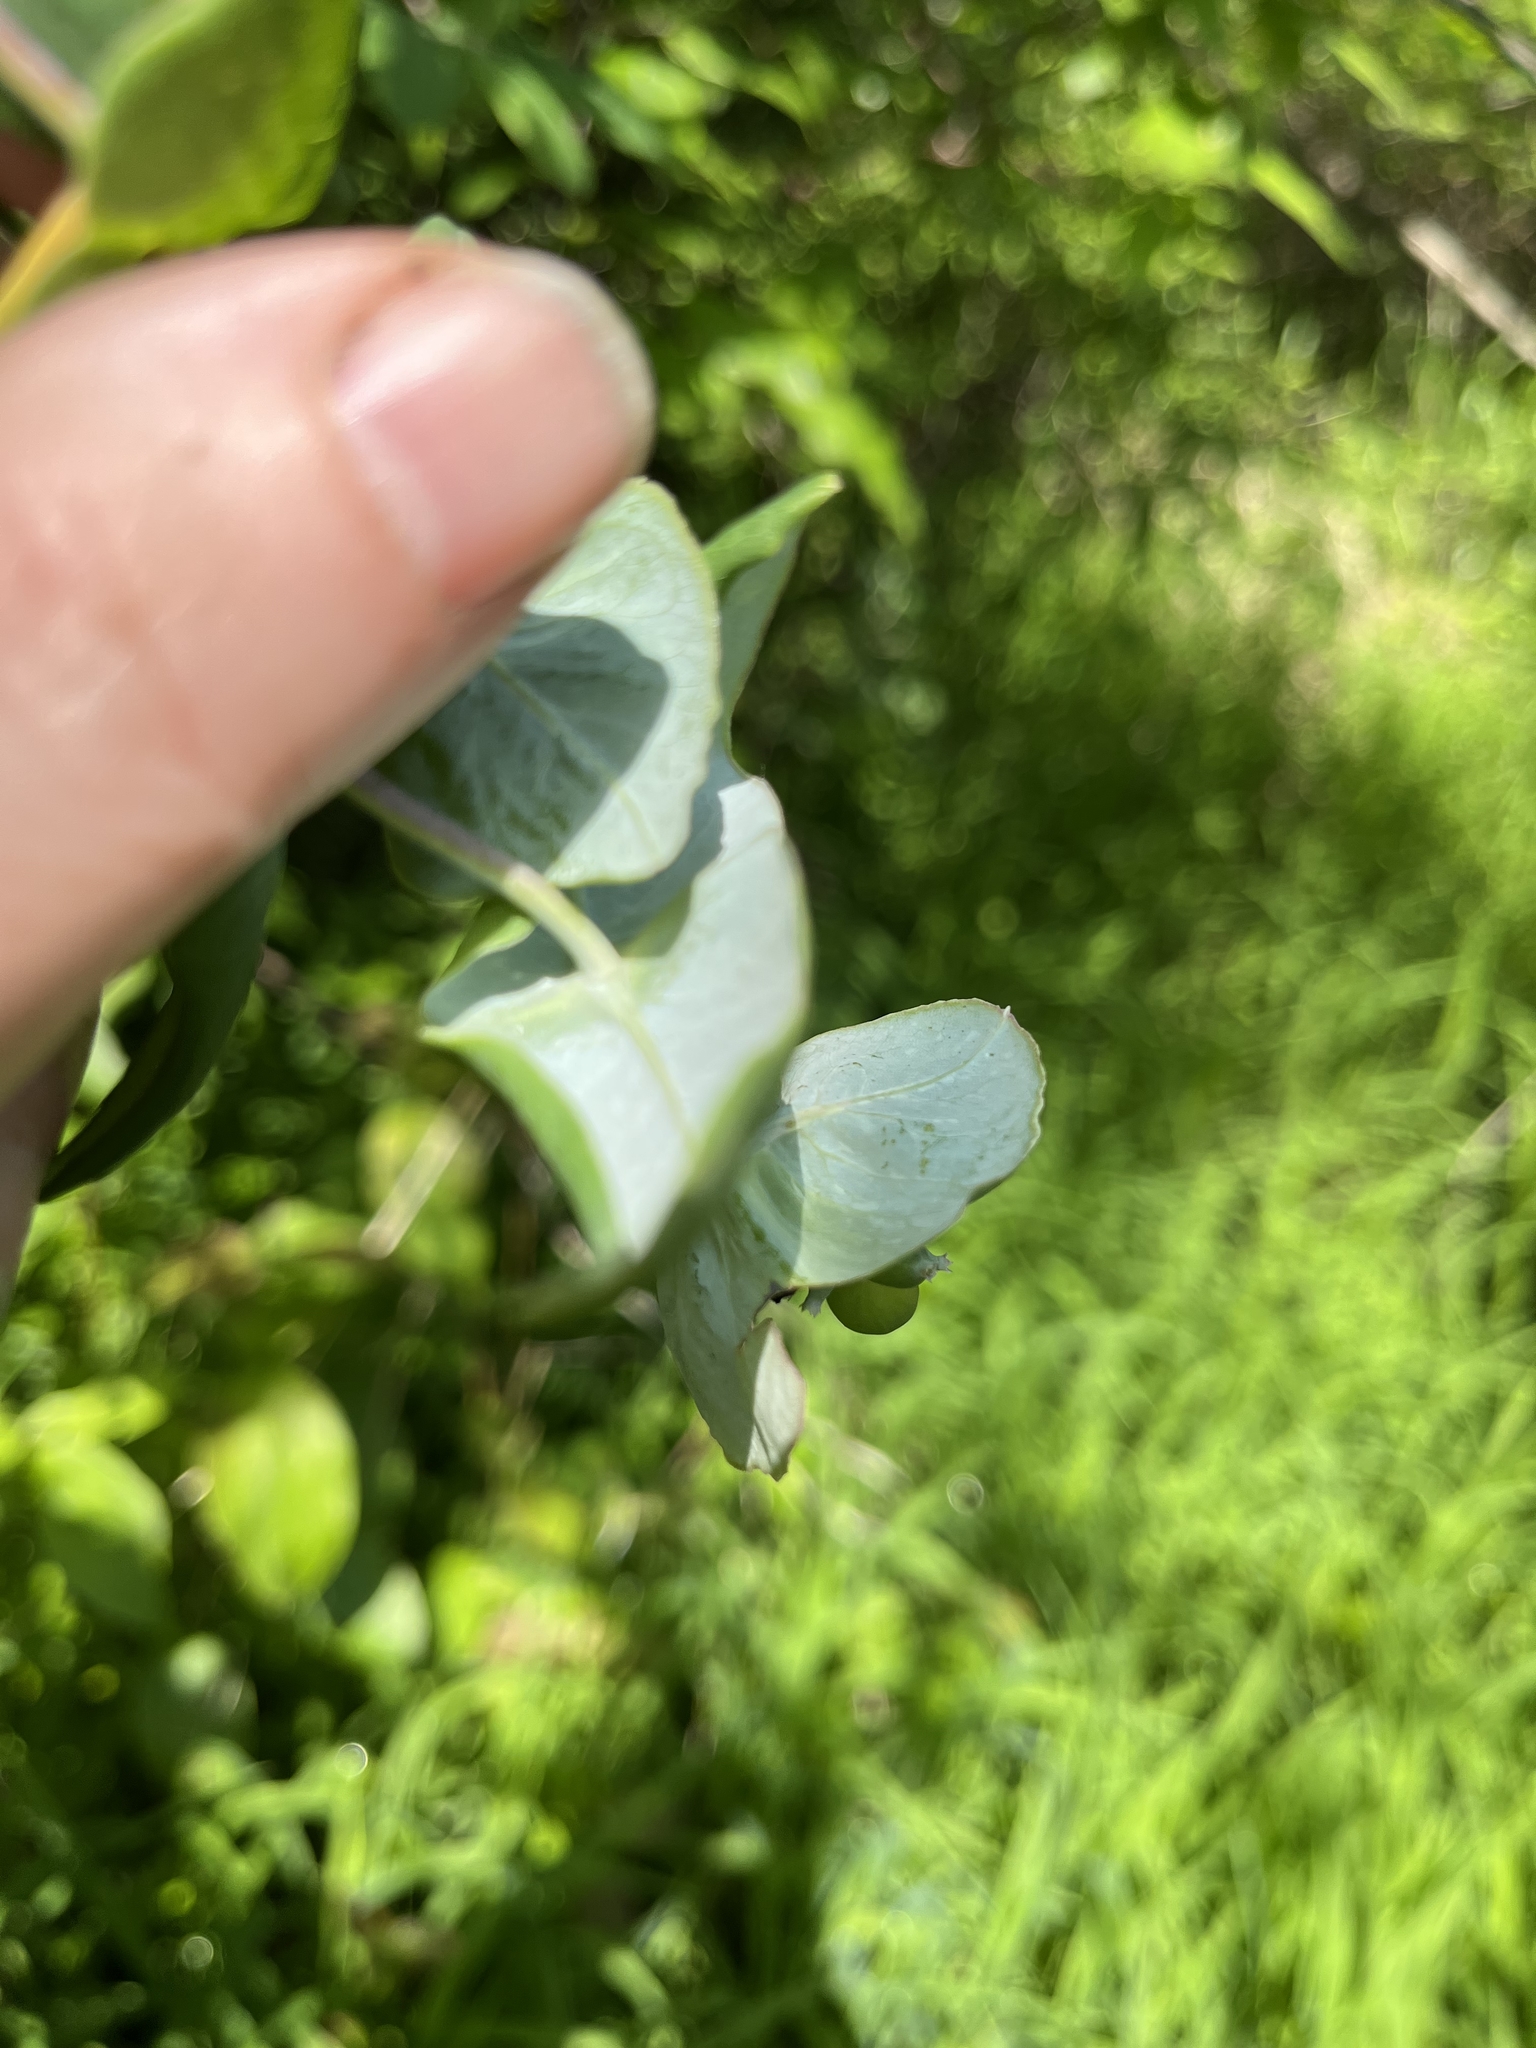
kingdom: Plantae
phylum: Tracheophyta
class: Magnoliopsida
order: Dipsacales
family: Caprifoliaceae
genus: Lonicera
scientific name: Lonicera dioica
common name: Limber honeysuckle
